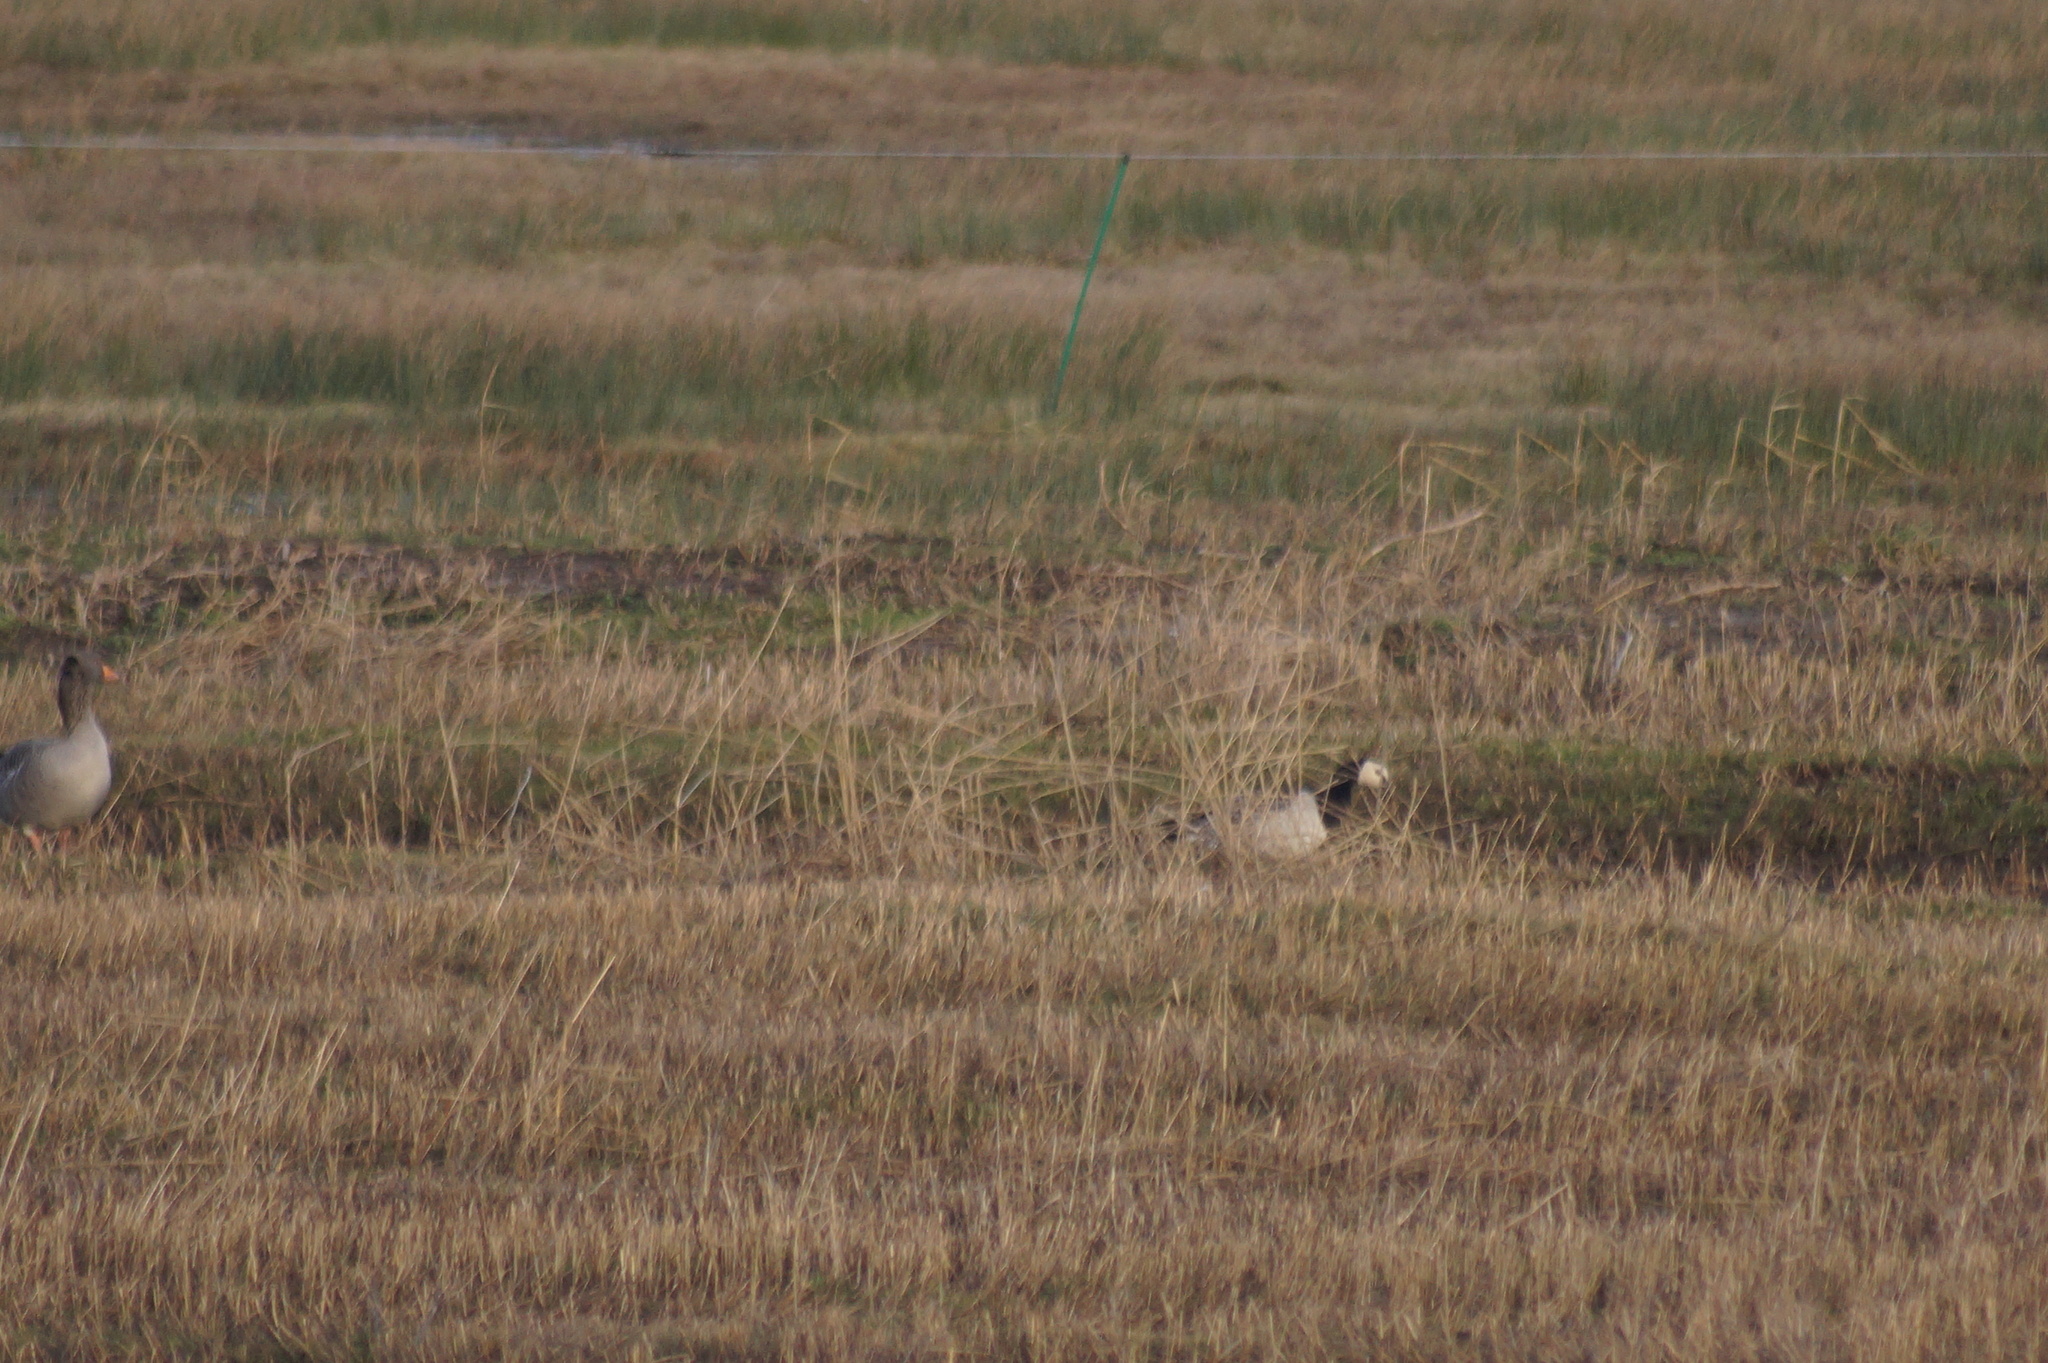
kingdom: Animalia
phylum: Chordata
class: Aves
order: Anseriformes
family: Anatidae
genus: Branta
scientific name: Branta leucopsis
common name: Barnacle goose
